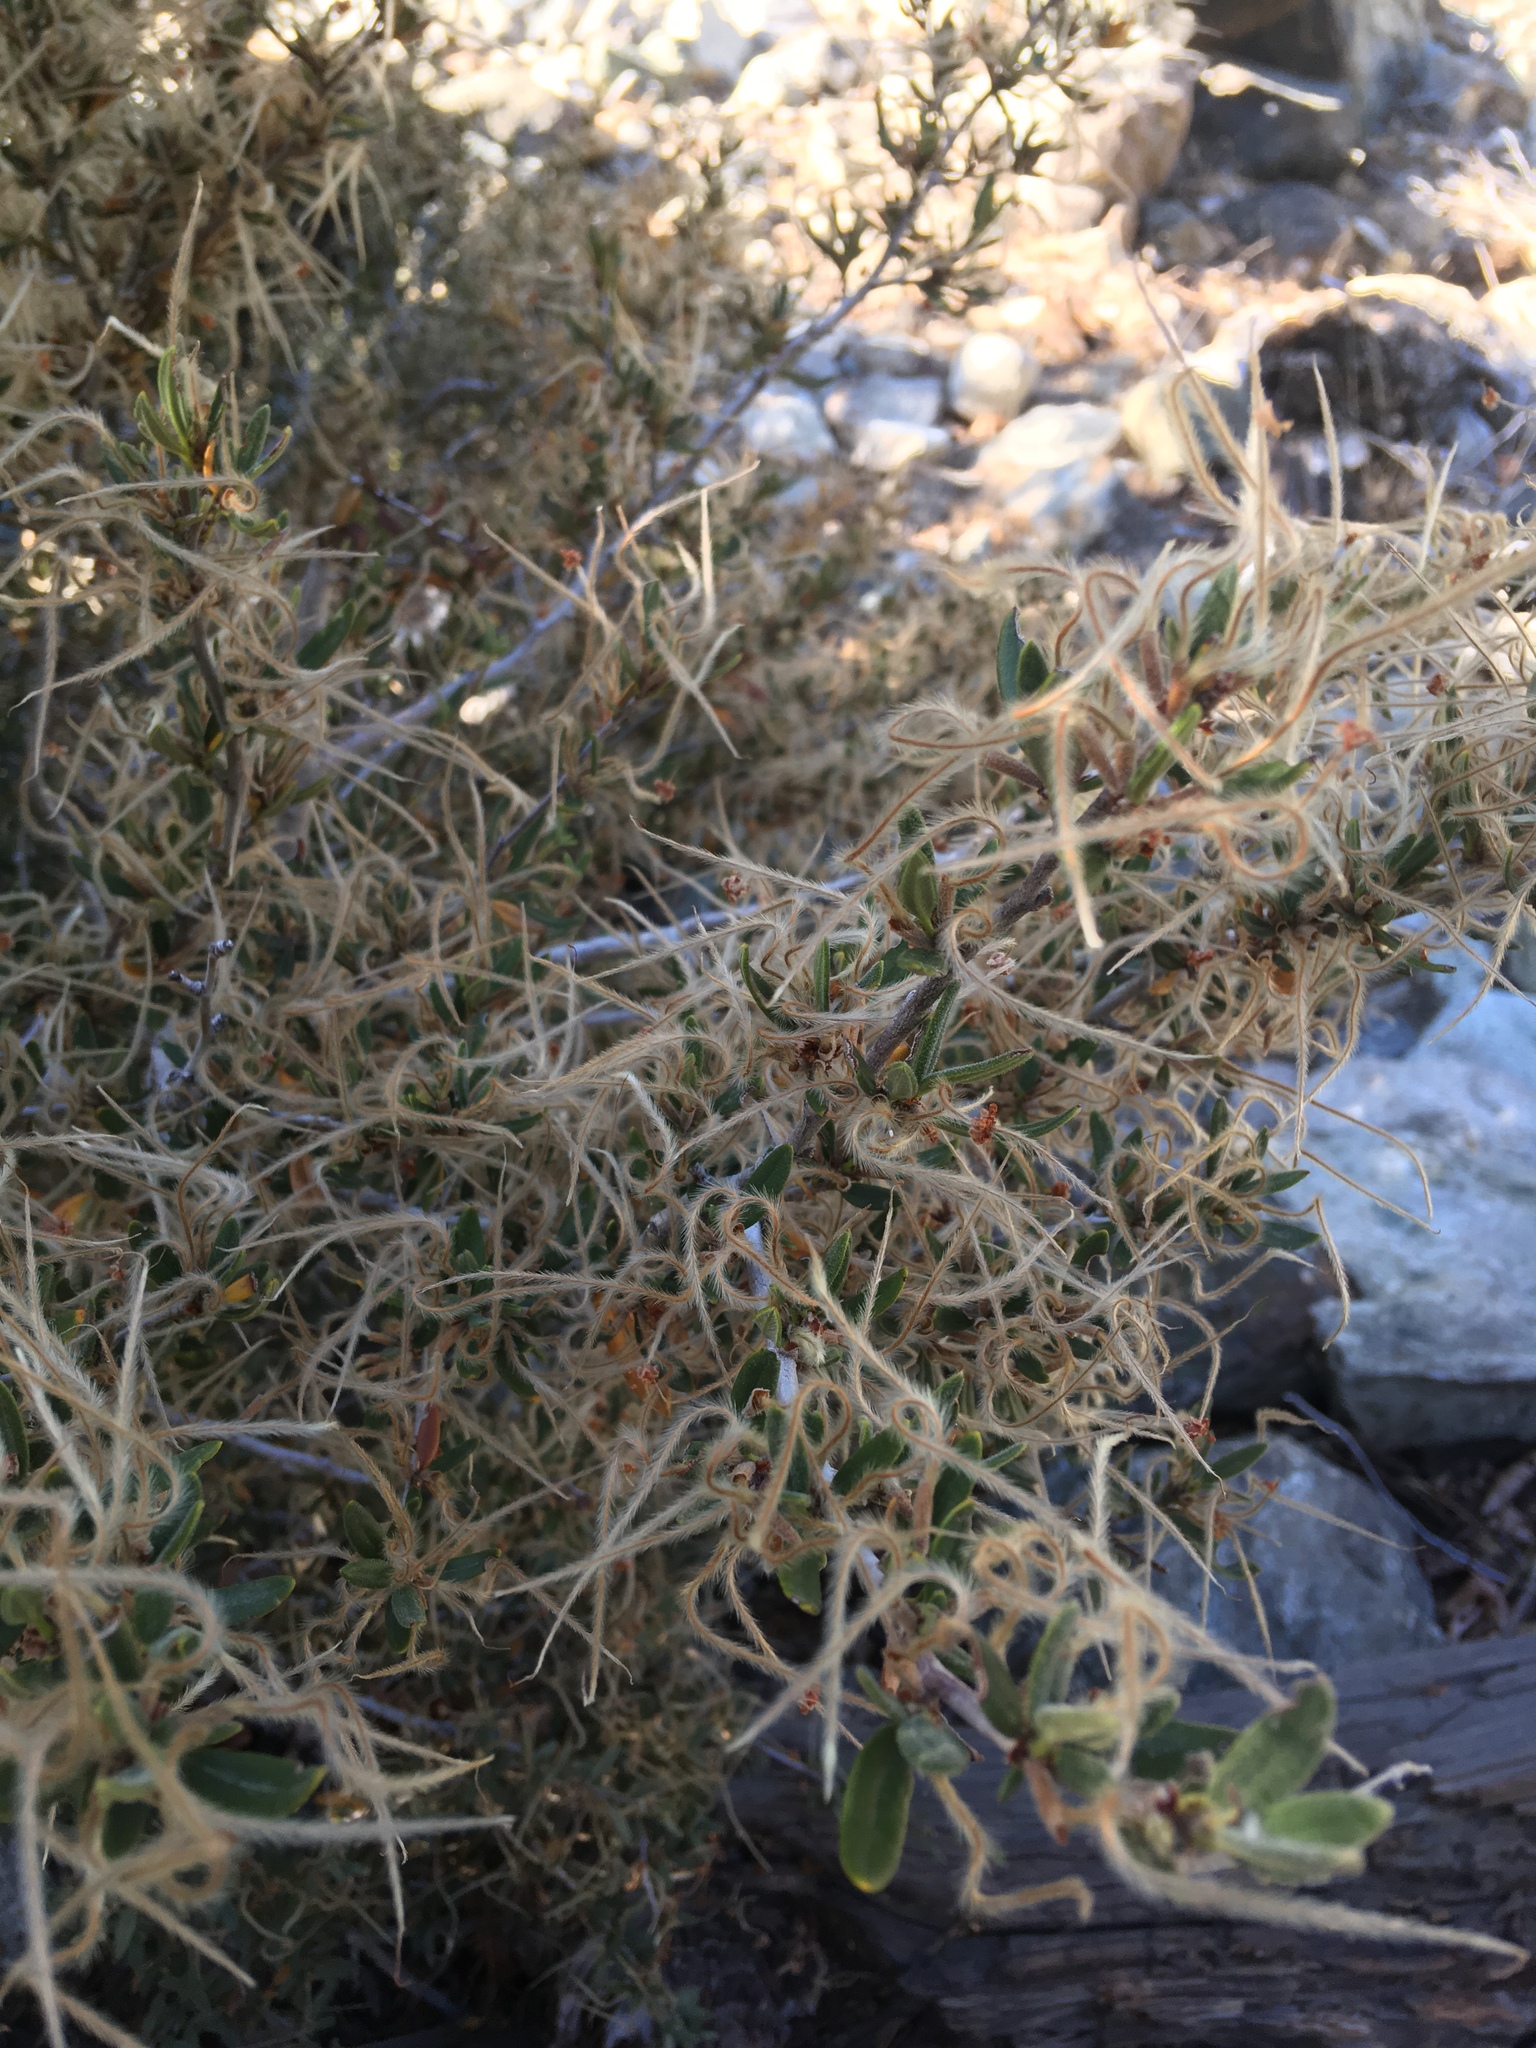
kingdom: Plantae
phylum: Tracheophyta
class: Magnoliopsida
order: Rosales
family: Rosaceae
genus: Cercocarpus
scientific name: Cercocarpus ledifolius
